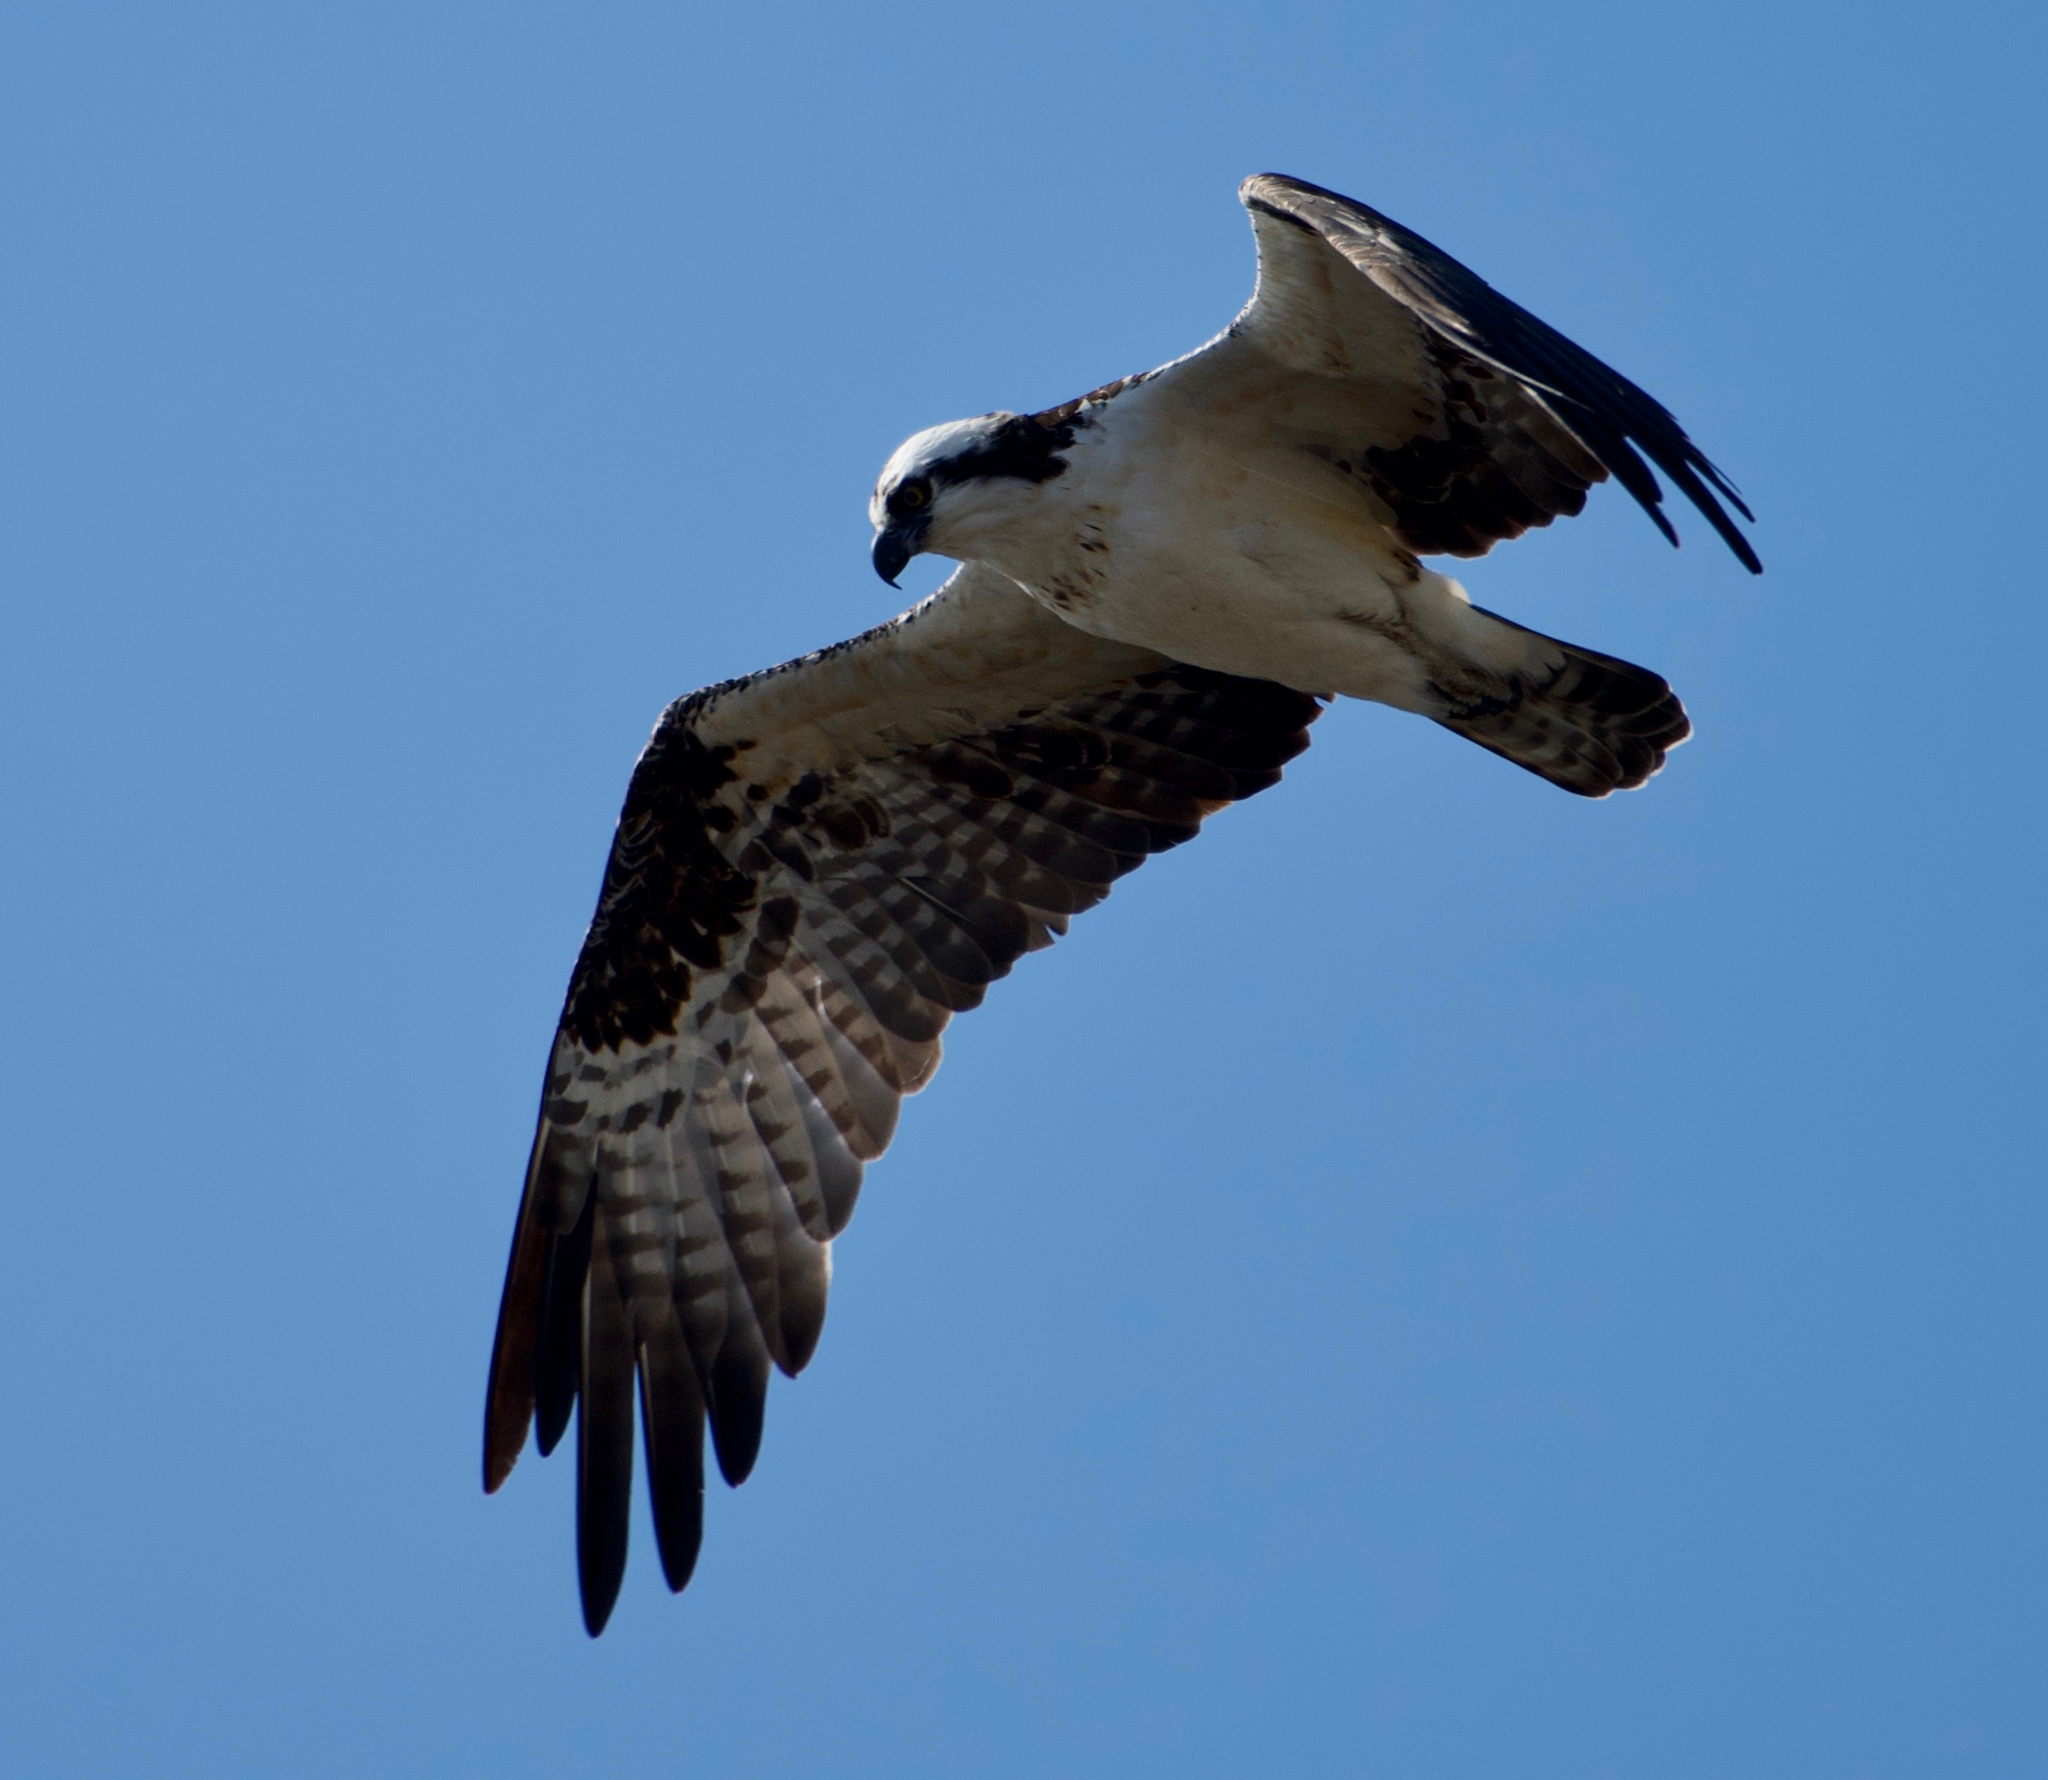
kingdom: Animalia
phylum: Chordata
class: Aves
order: Accipitriformes
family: Pandionidae
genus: Pandion
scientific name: Pandion haliaetus
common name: Osprey
